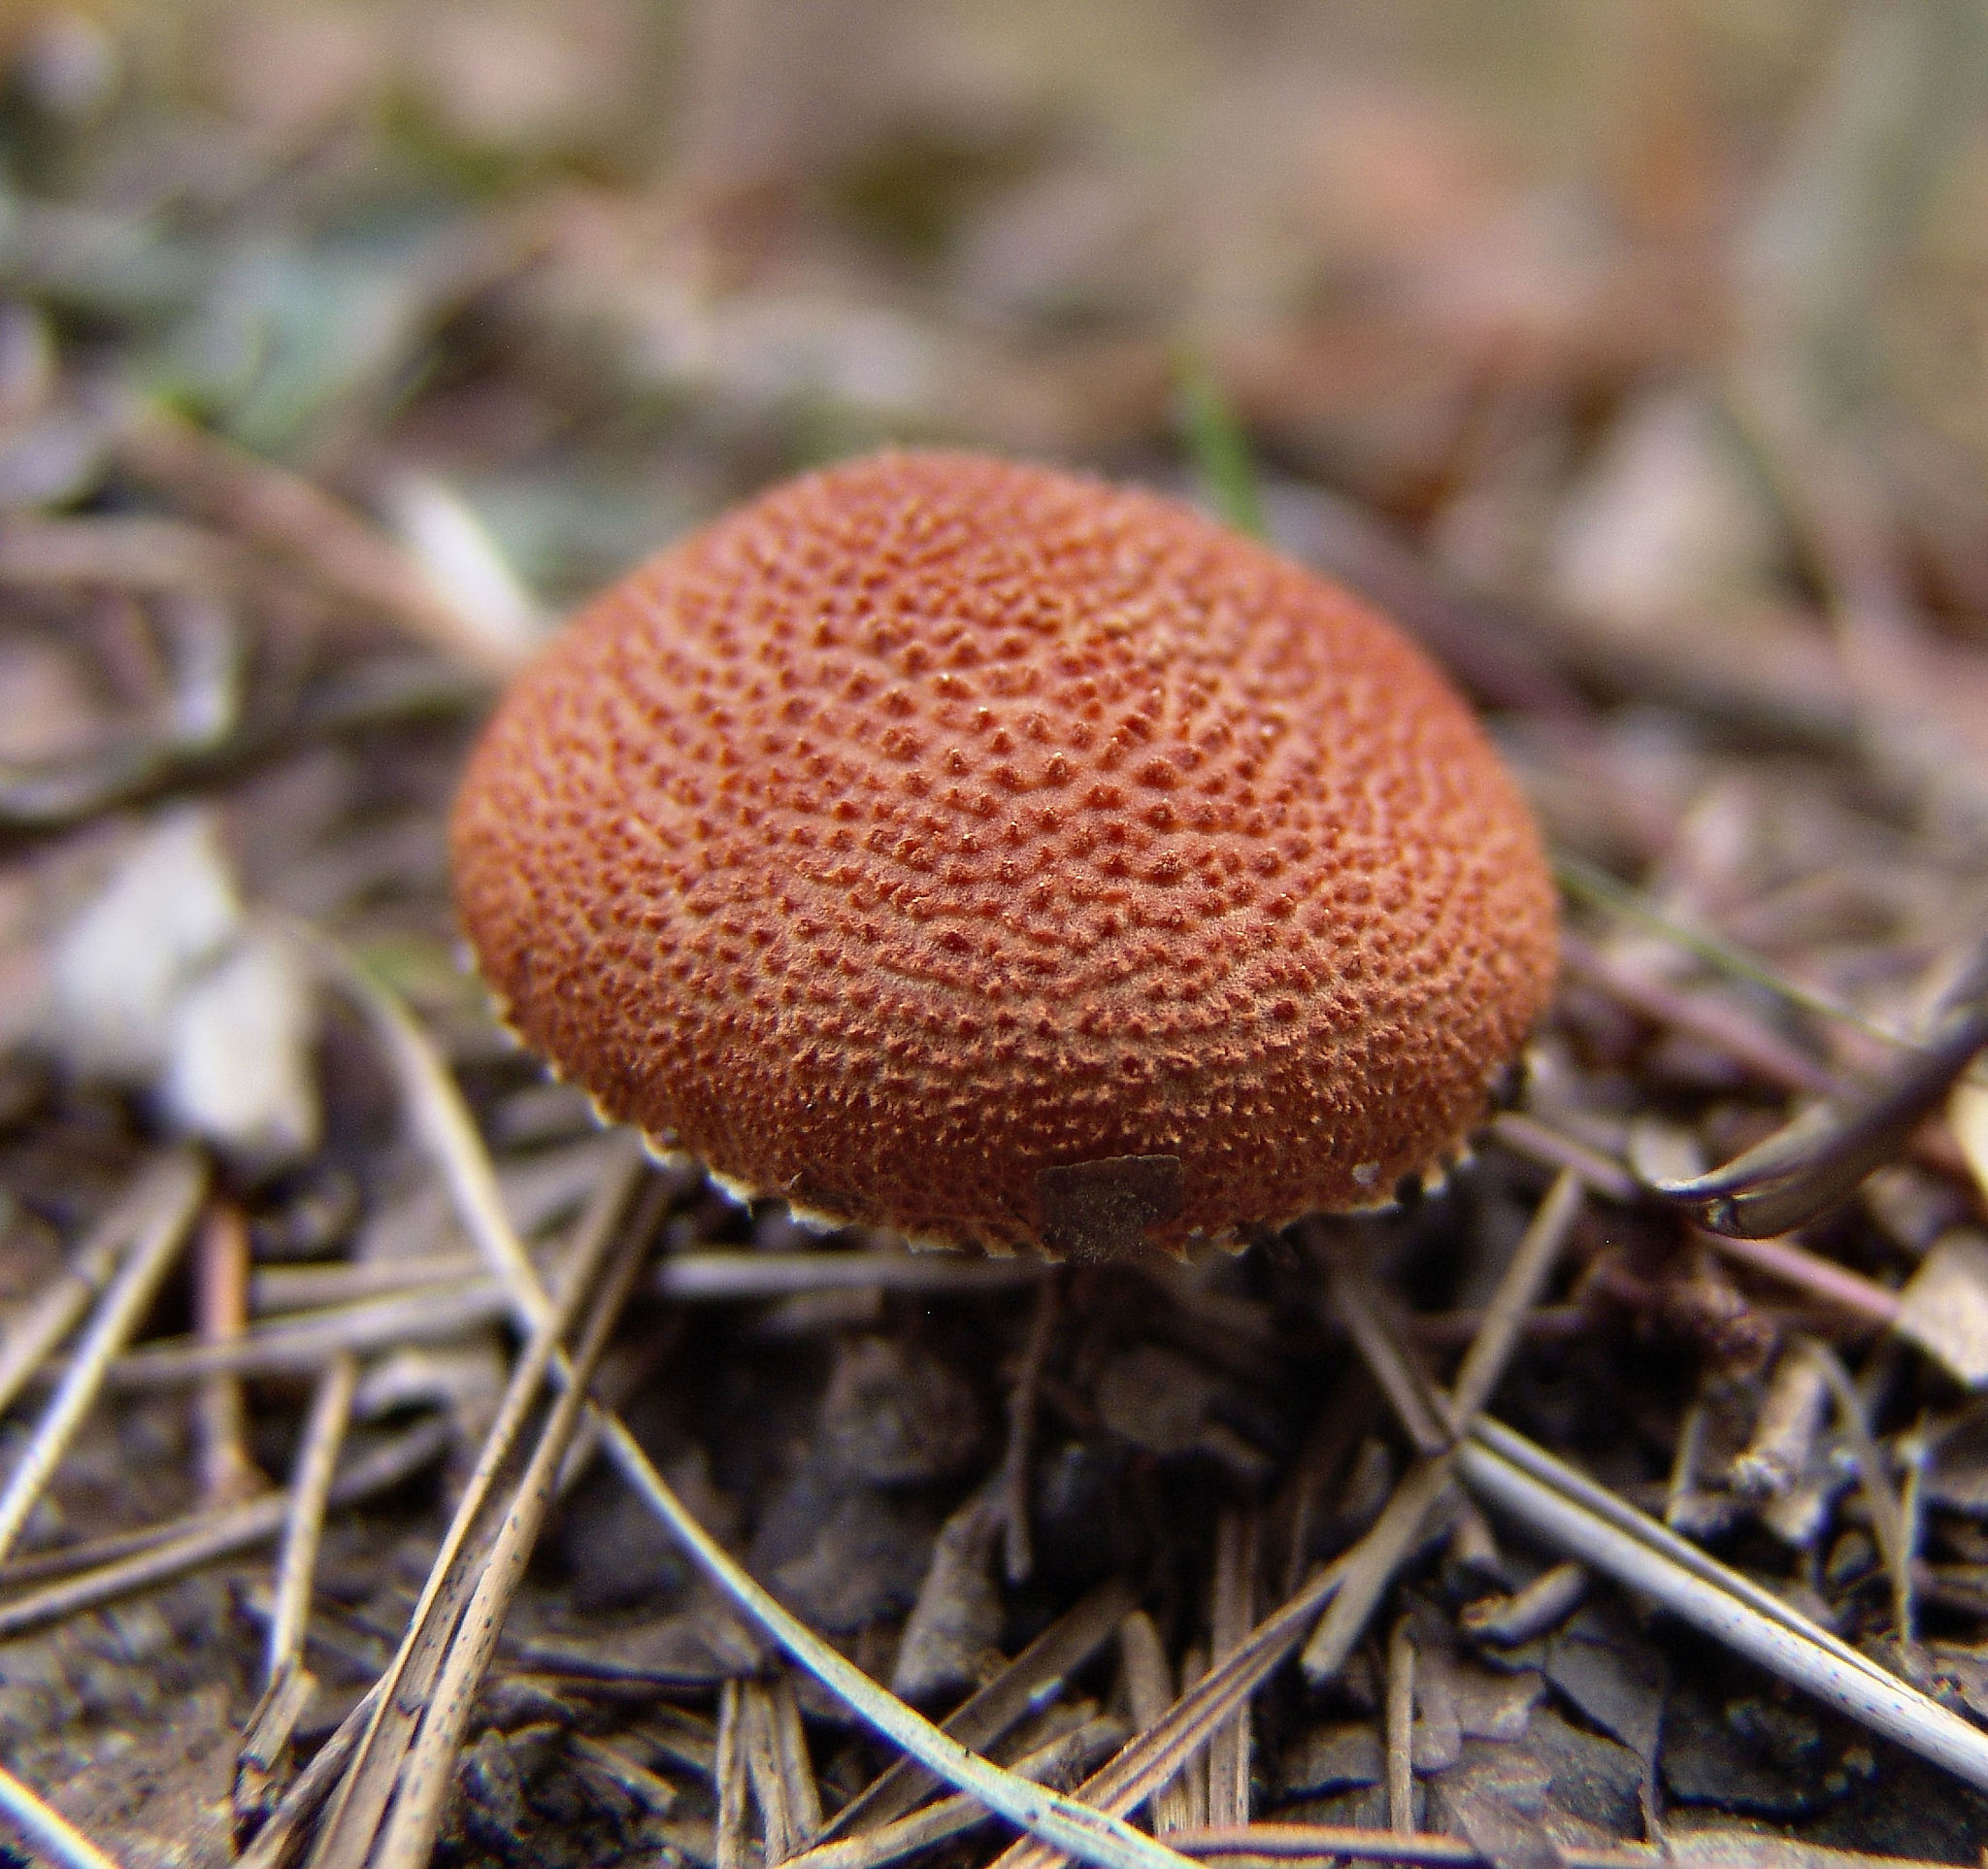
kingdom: Fungi
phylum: Basidiomycota
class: Agaricomycetes
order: Agaricales
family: Agaricaceae
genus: Cystodermella
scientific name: Cystodermella cinnabarina
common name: Cinnabar powdercap
